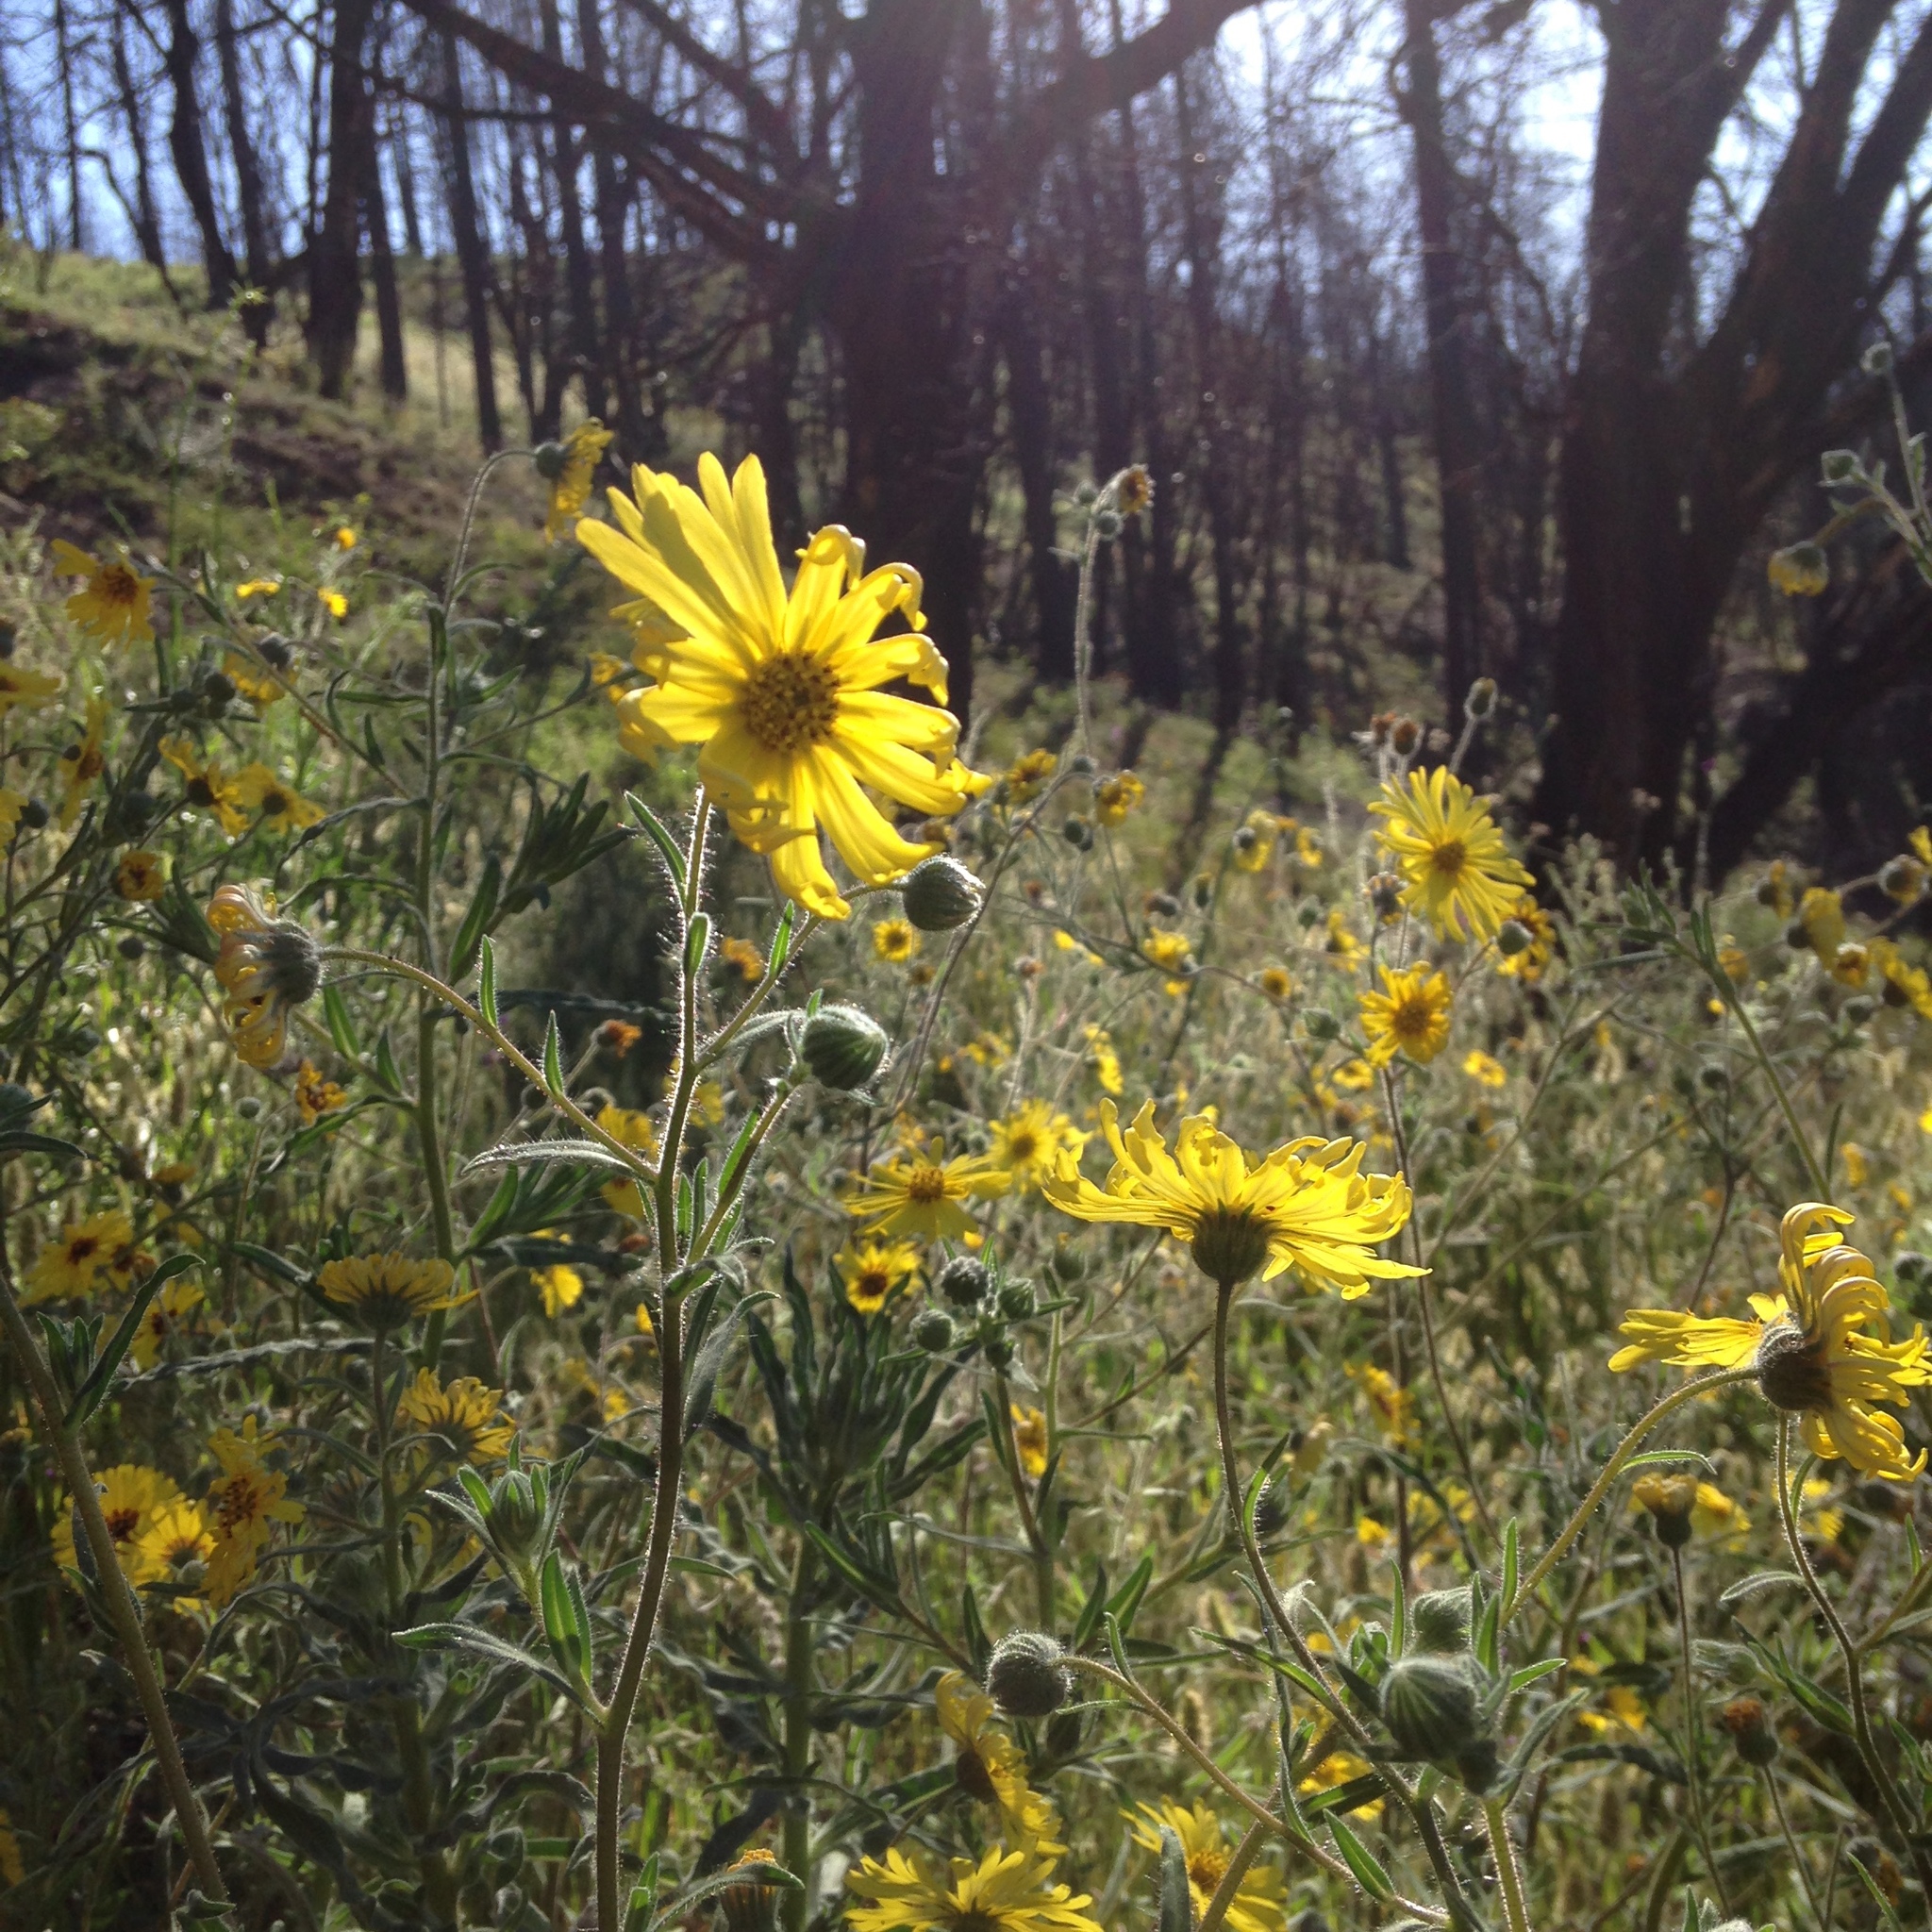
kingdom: Plantae
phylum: Tracheophyta
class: Magnoliopsida
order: Asterales
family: Asteraceae
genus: Madia
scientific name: Madia elegans
